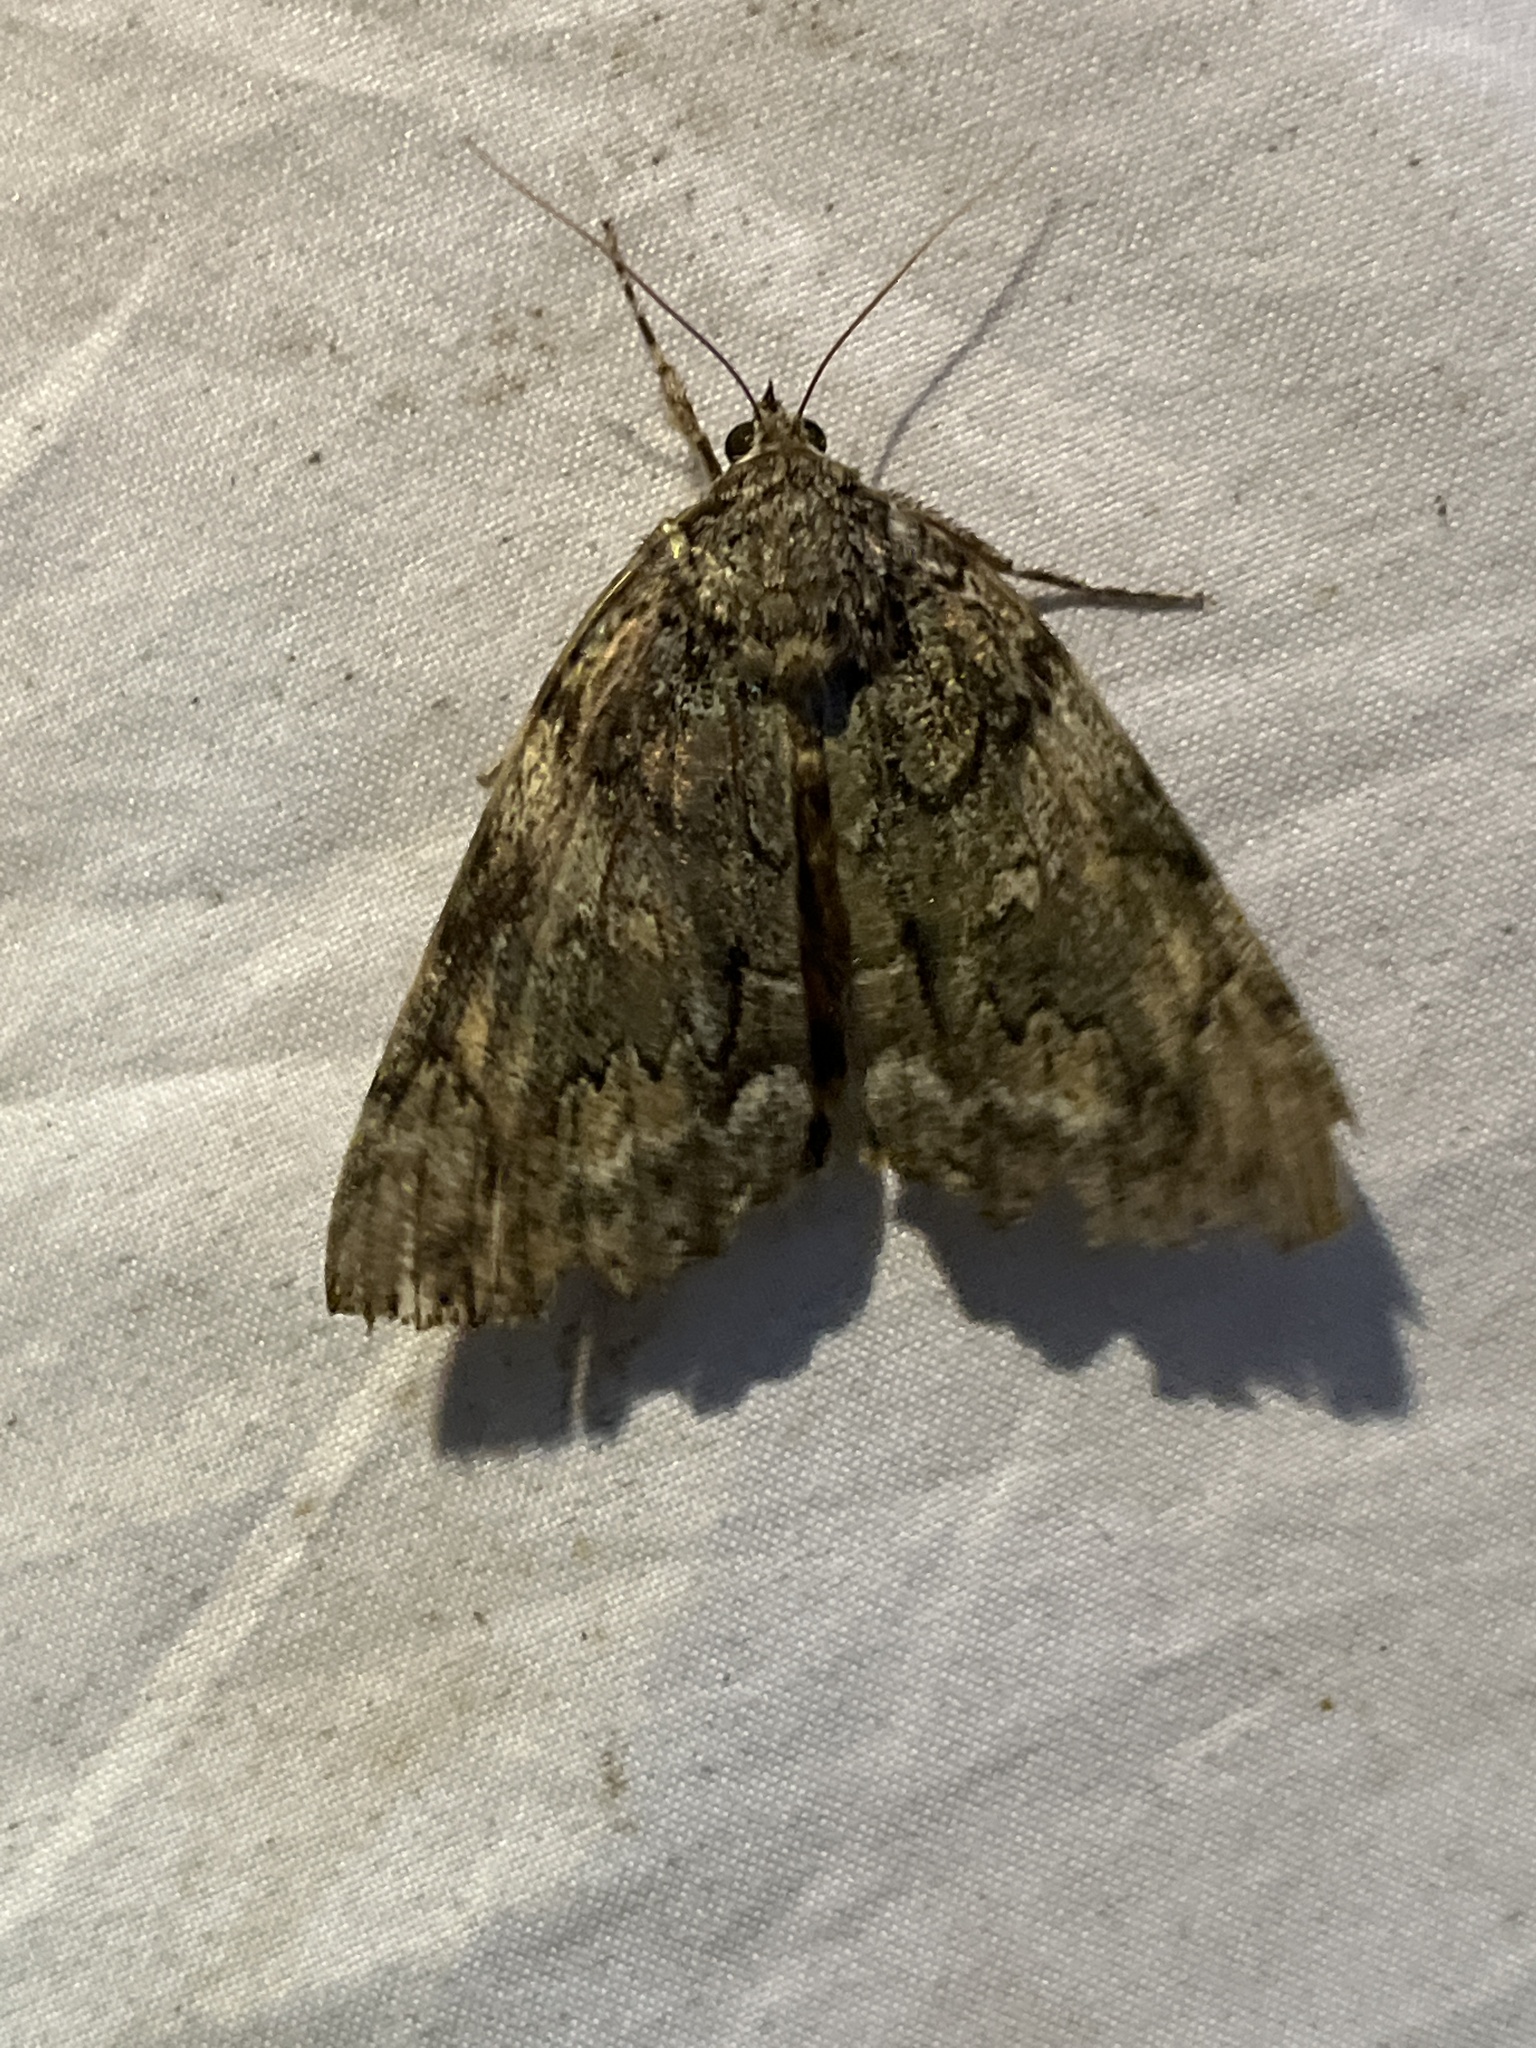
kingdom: Animalia
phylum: Arthropoda
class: Insecta
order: Lepidoptera
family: Erebidae
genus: Catocala
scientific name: Catocala palaeogama
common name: Oldwife underwing
